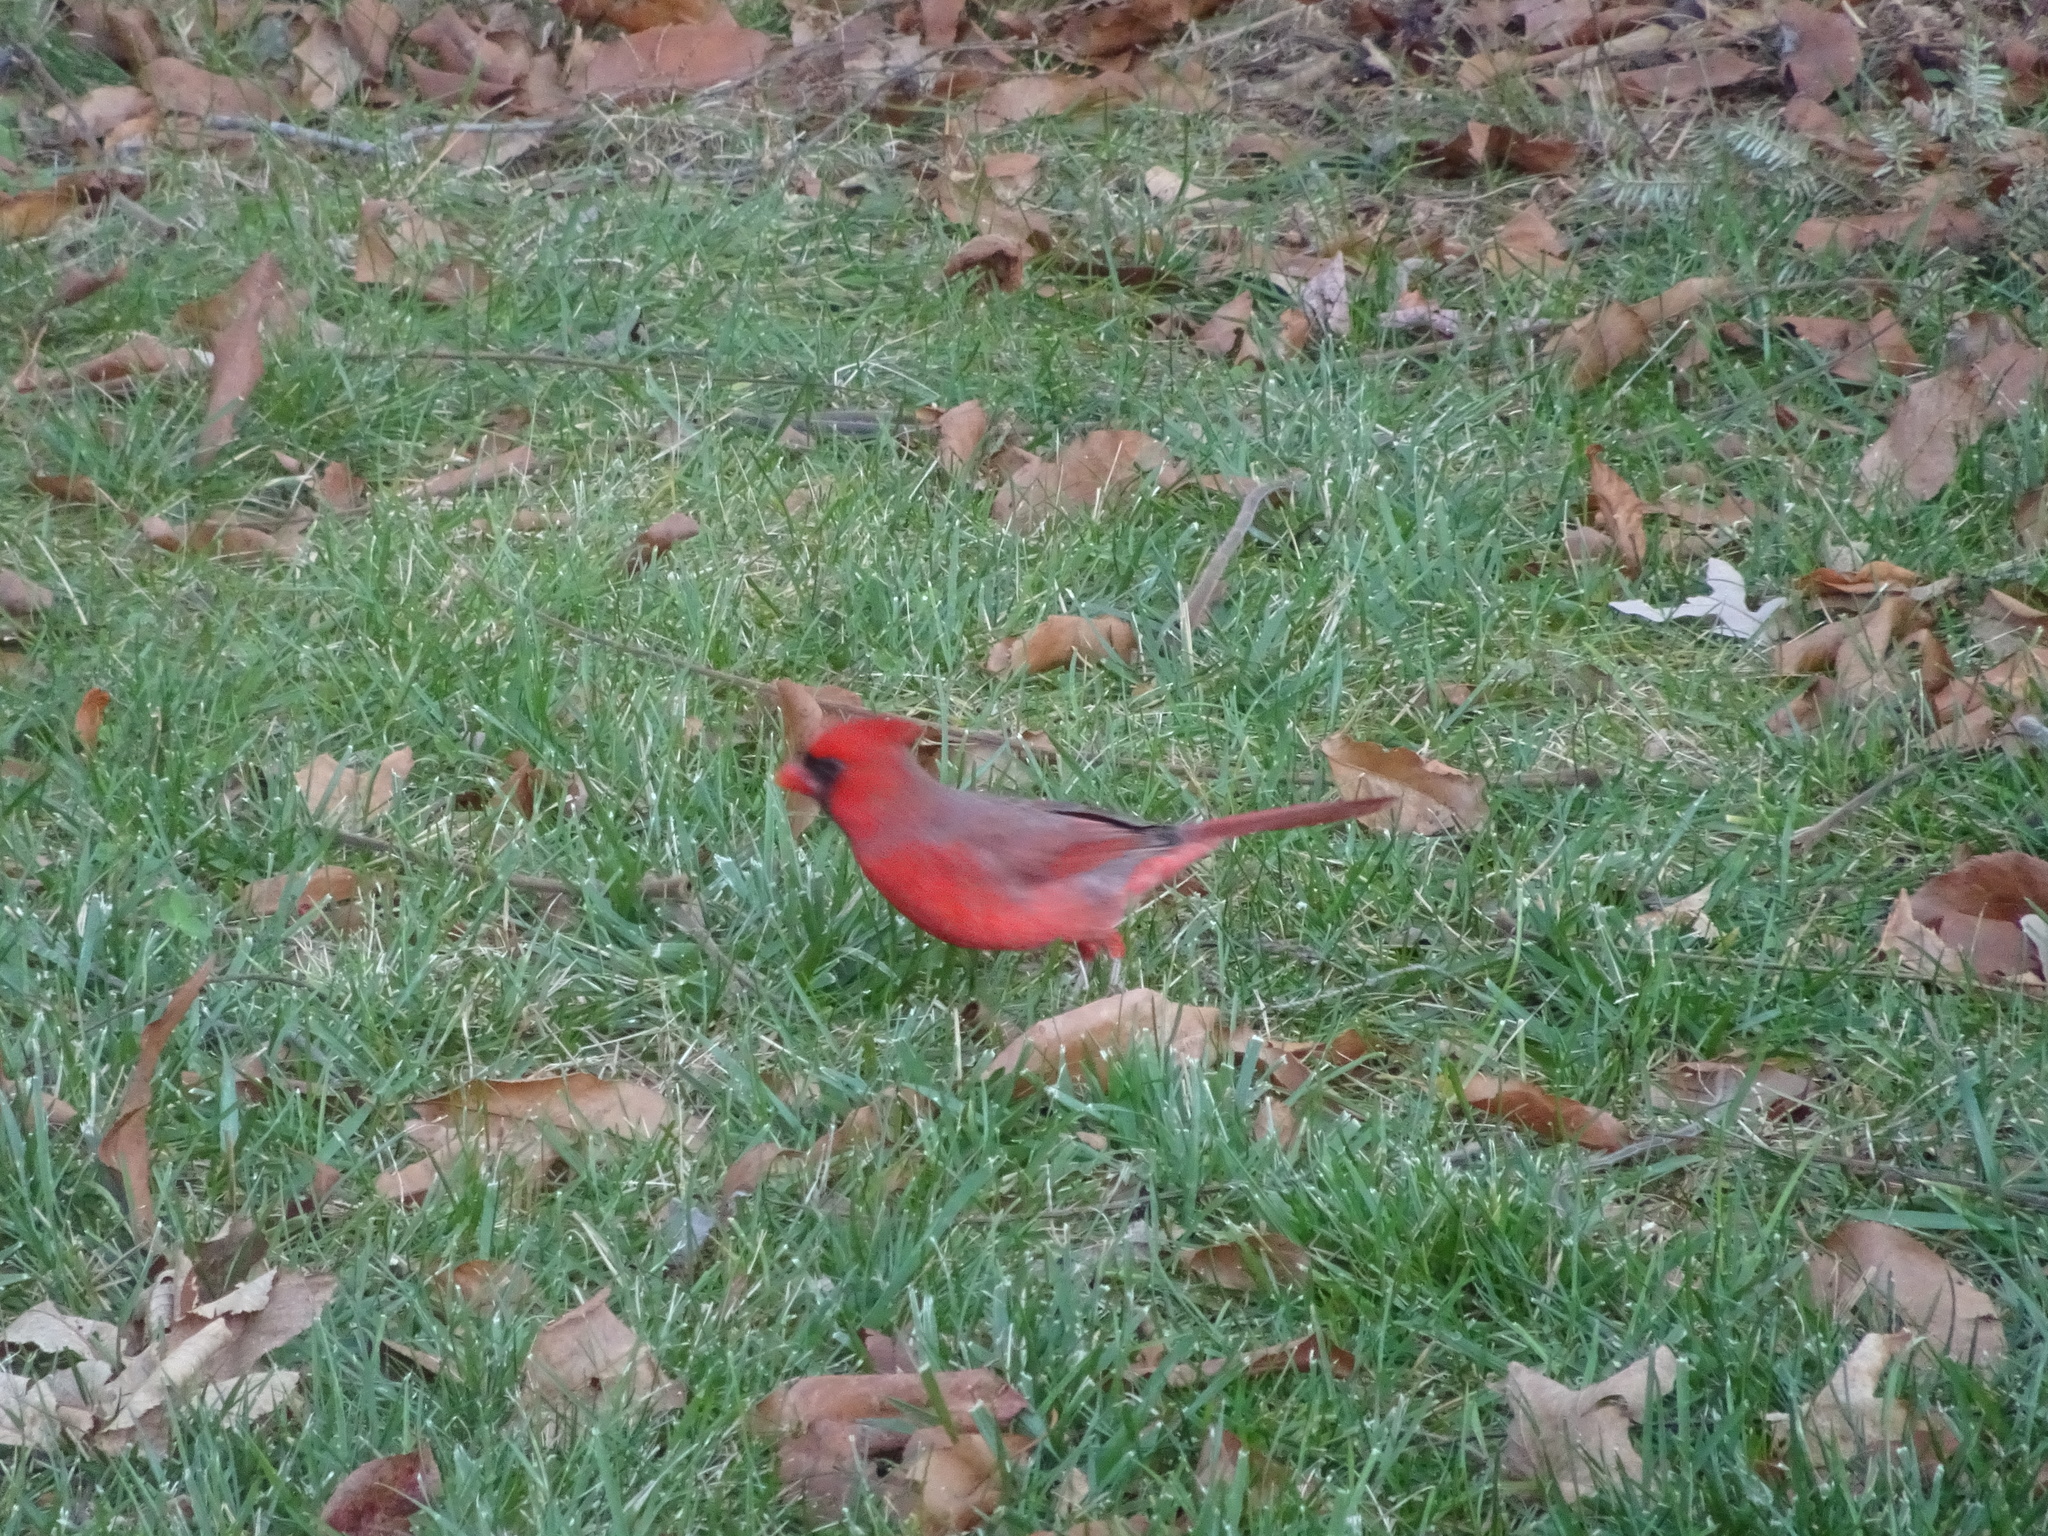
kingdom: Animalia
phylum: Chordata
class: Aves
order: Passeriformes
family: Cardinalidae
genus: Cardinalis
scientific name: Cardinalis cardinalis
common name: Northern cardinal
